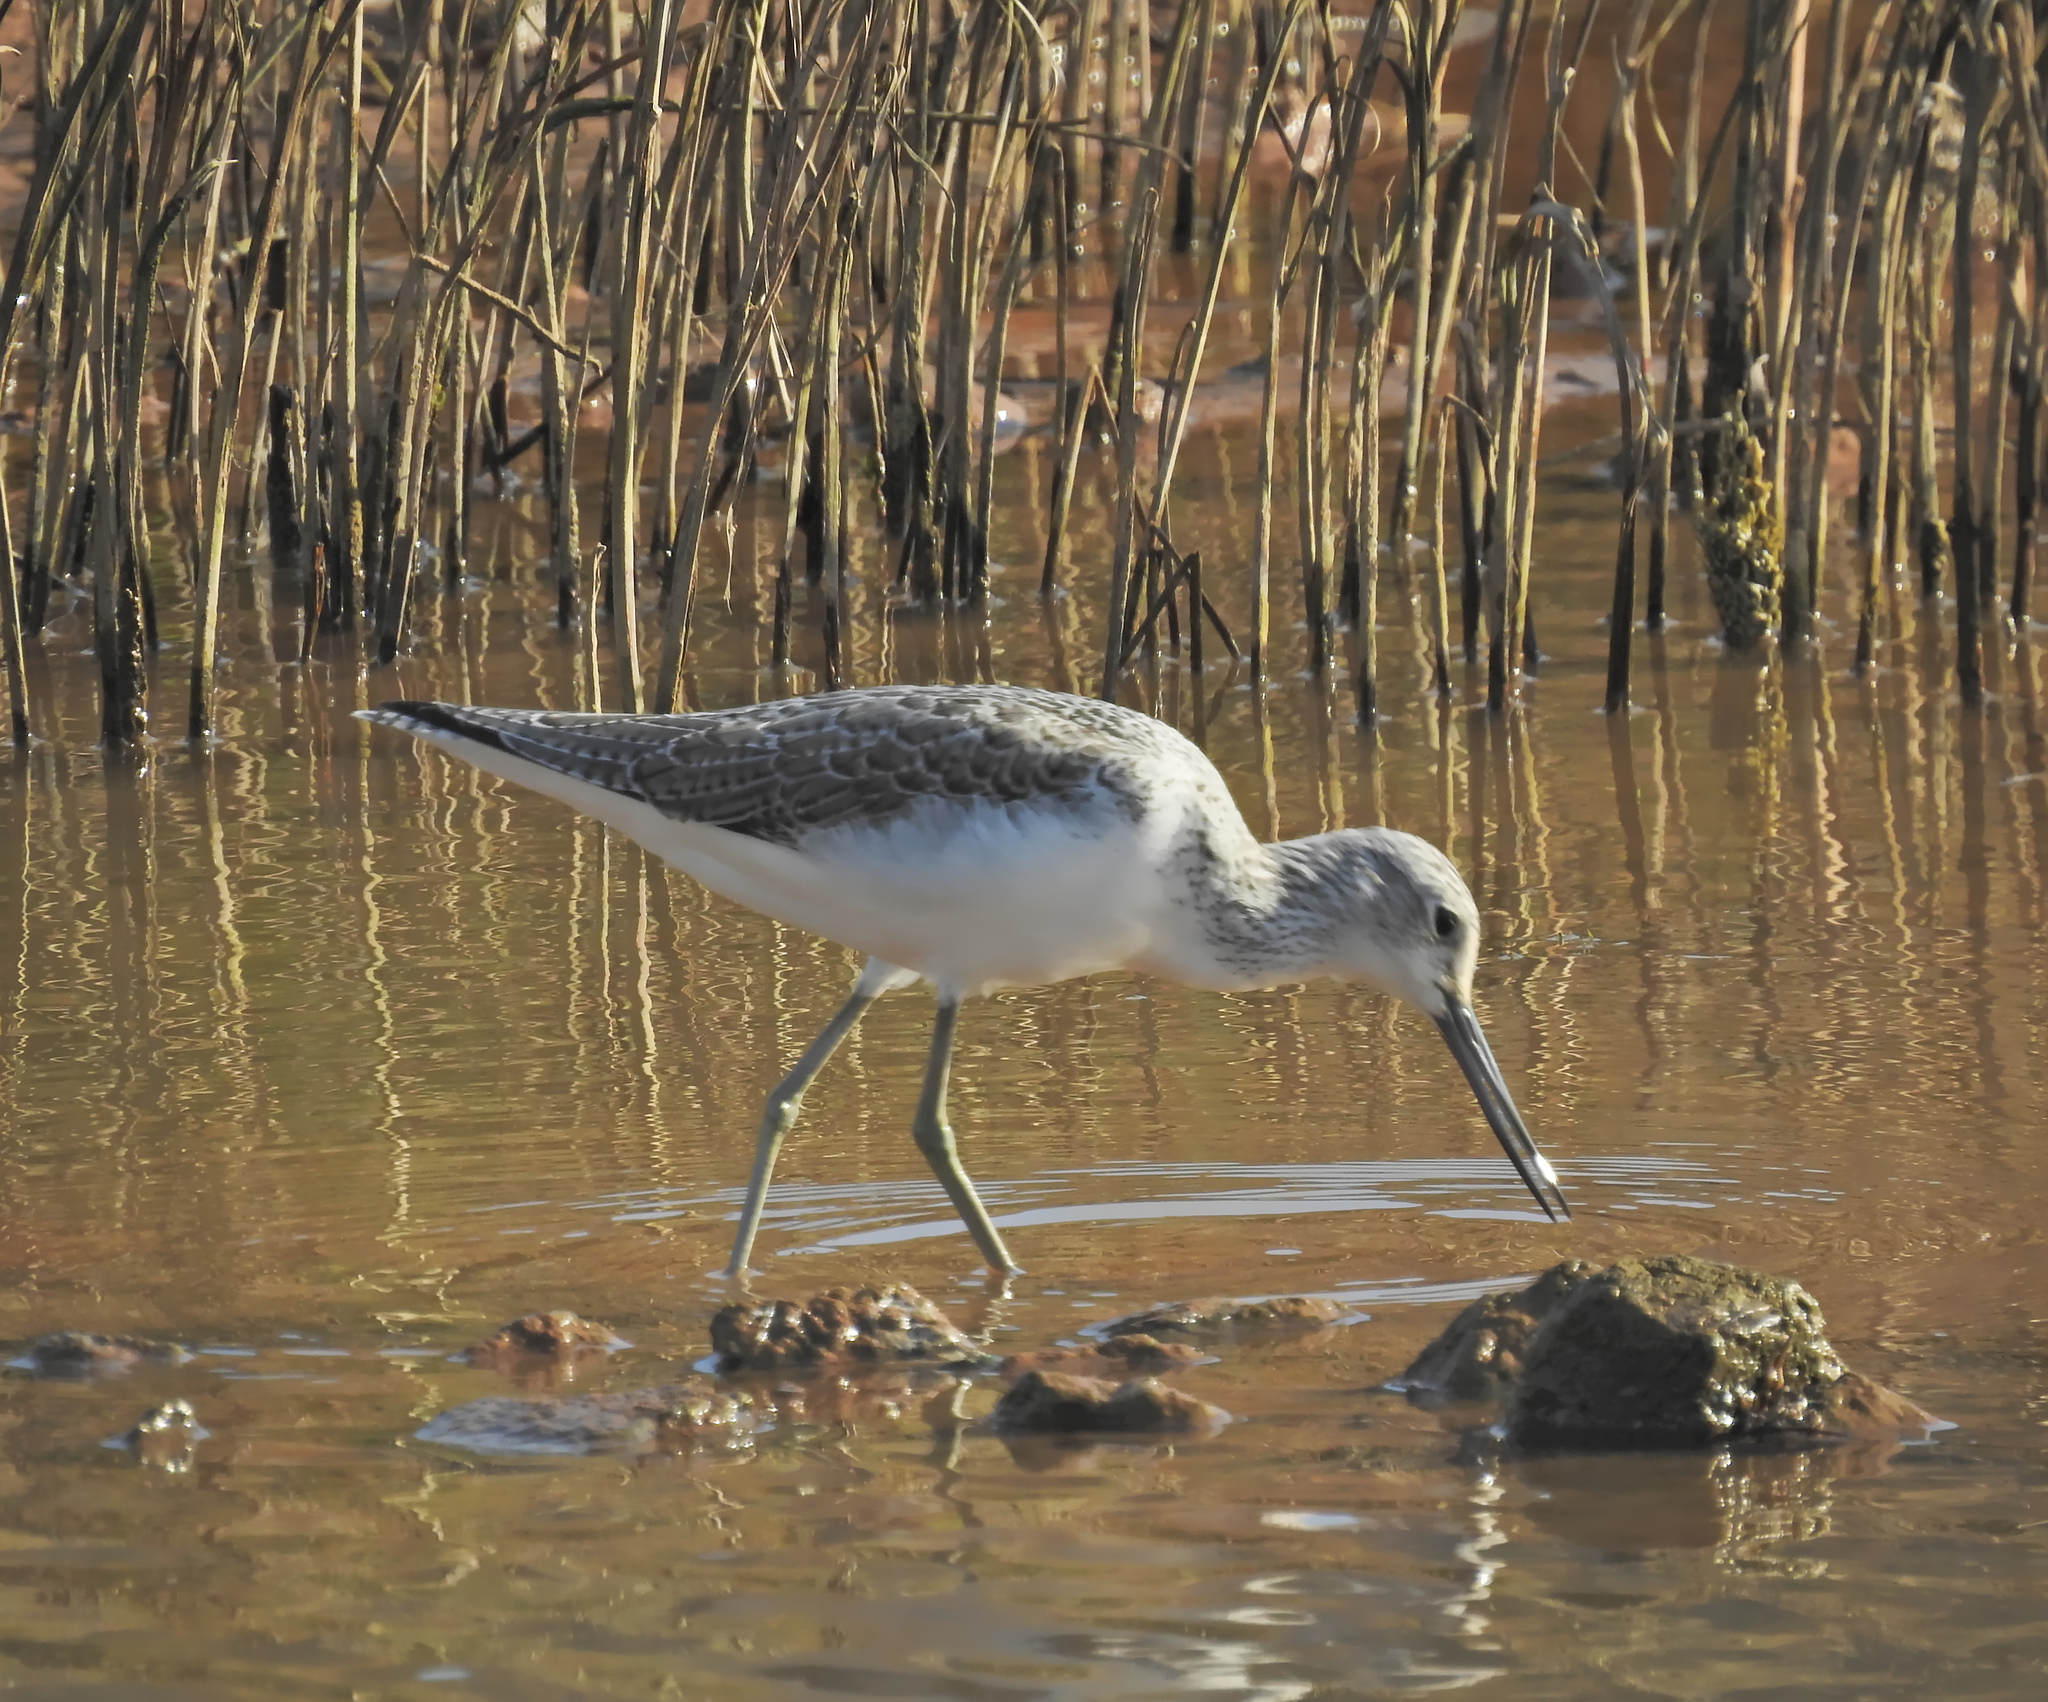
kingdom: Animalia
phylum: Chordata
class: Aves
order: Charadriiformes
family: Scolopacidae
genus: Tringa
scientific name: Tringa nebularia
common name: Common greenshank
